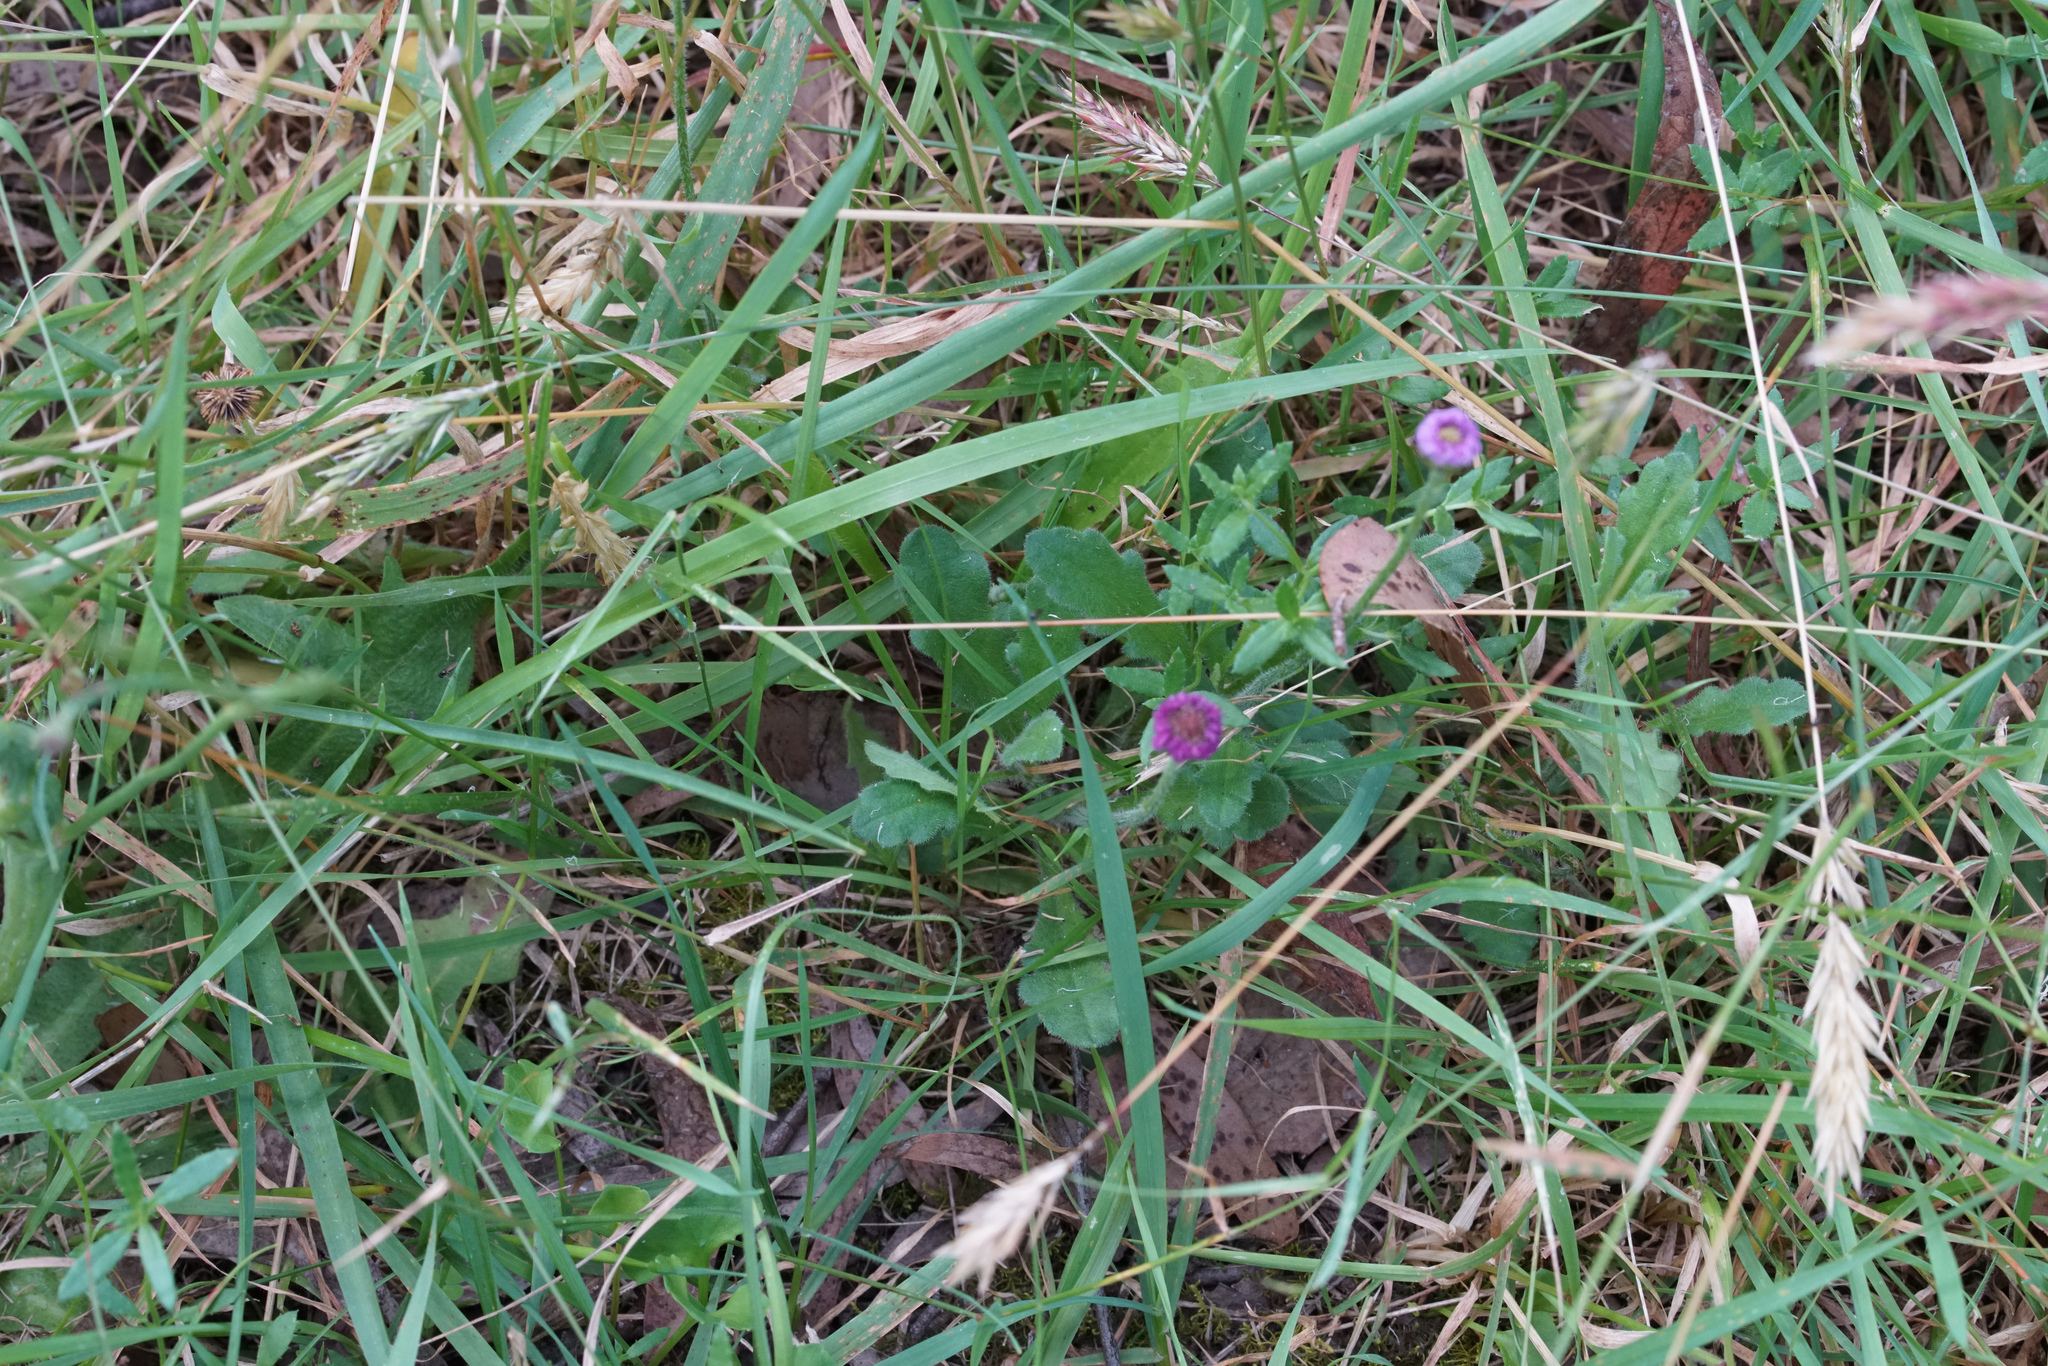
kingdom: Plantae
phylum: Tracheophyta
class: Magnoliopsida
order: Asterales
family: Asteraceae
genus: Lagenophora
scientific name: Lagenophora stipitata
